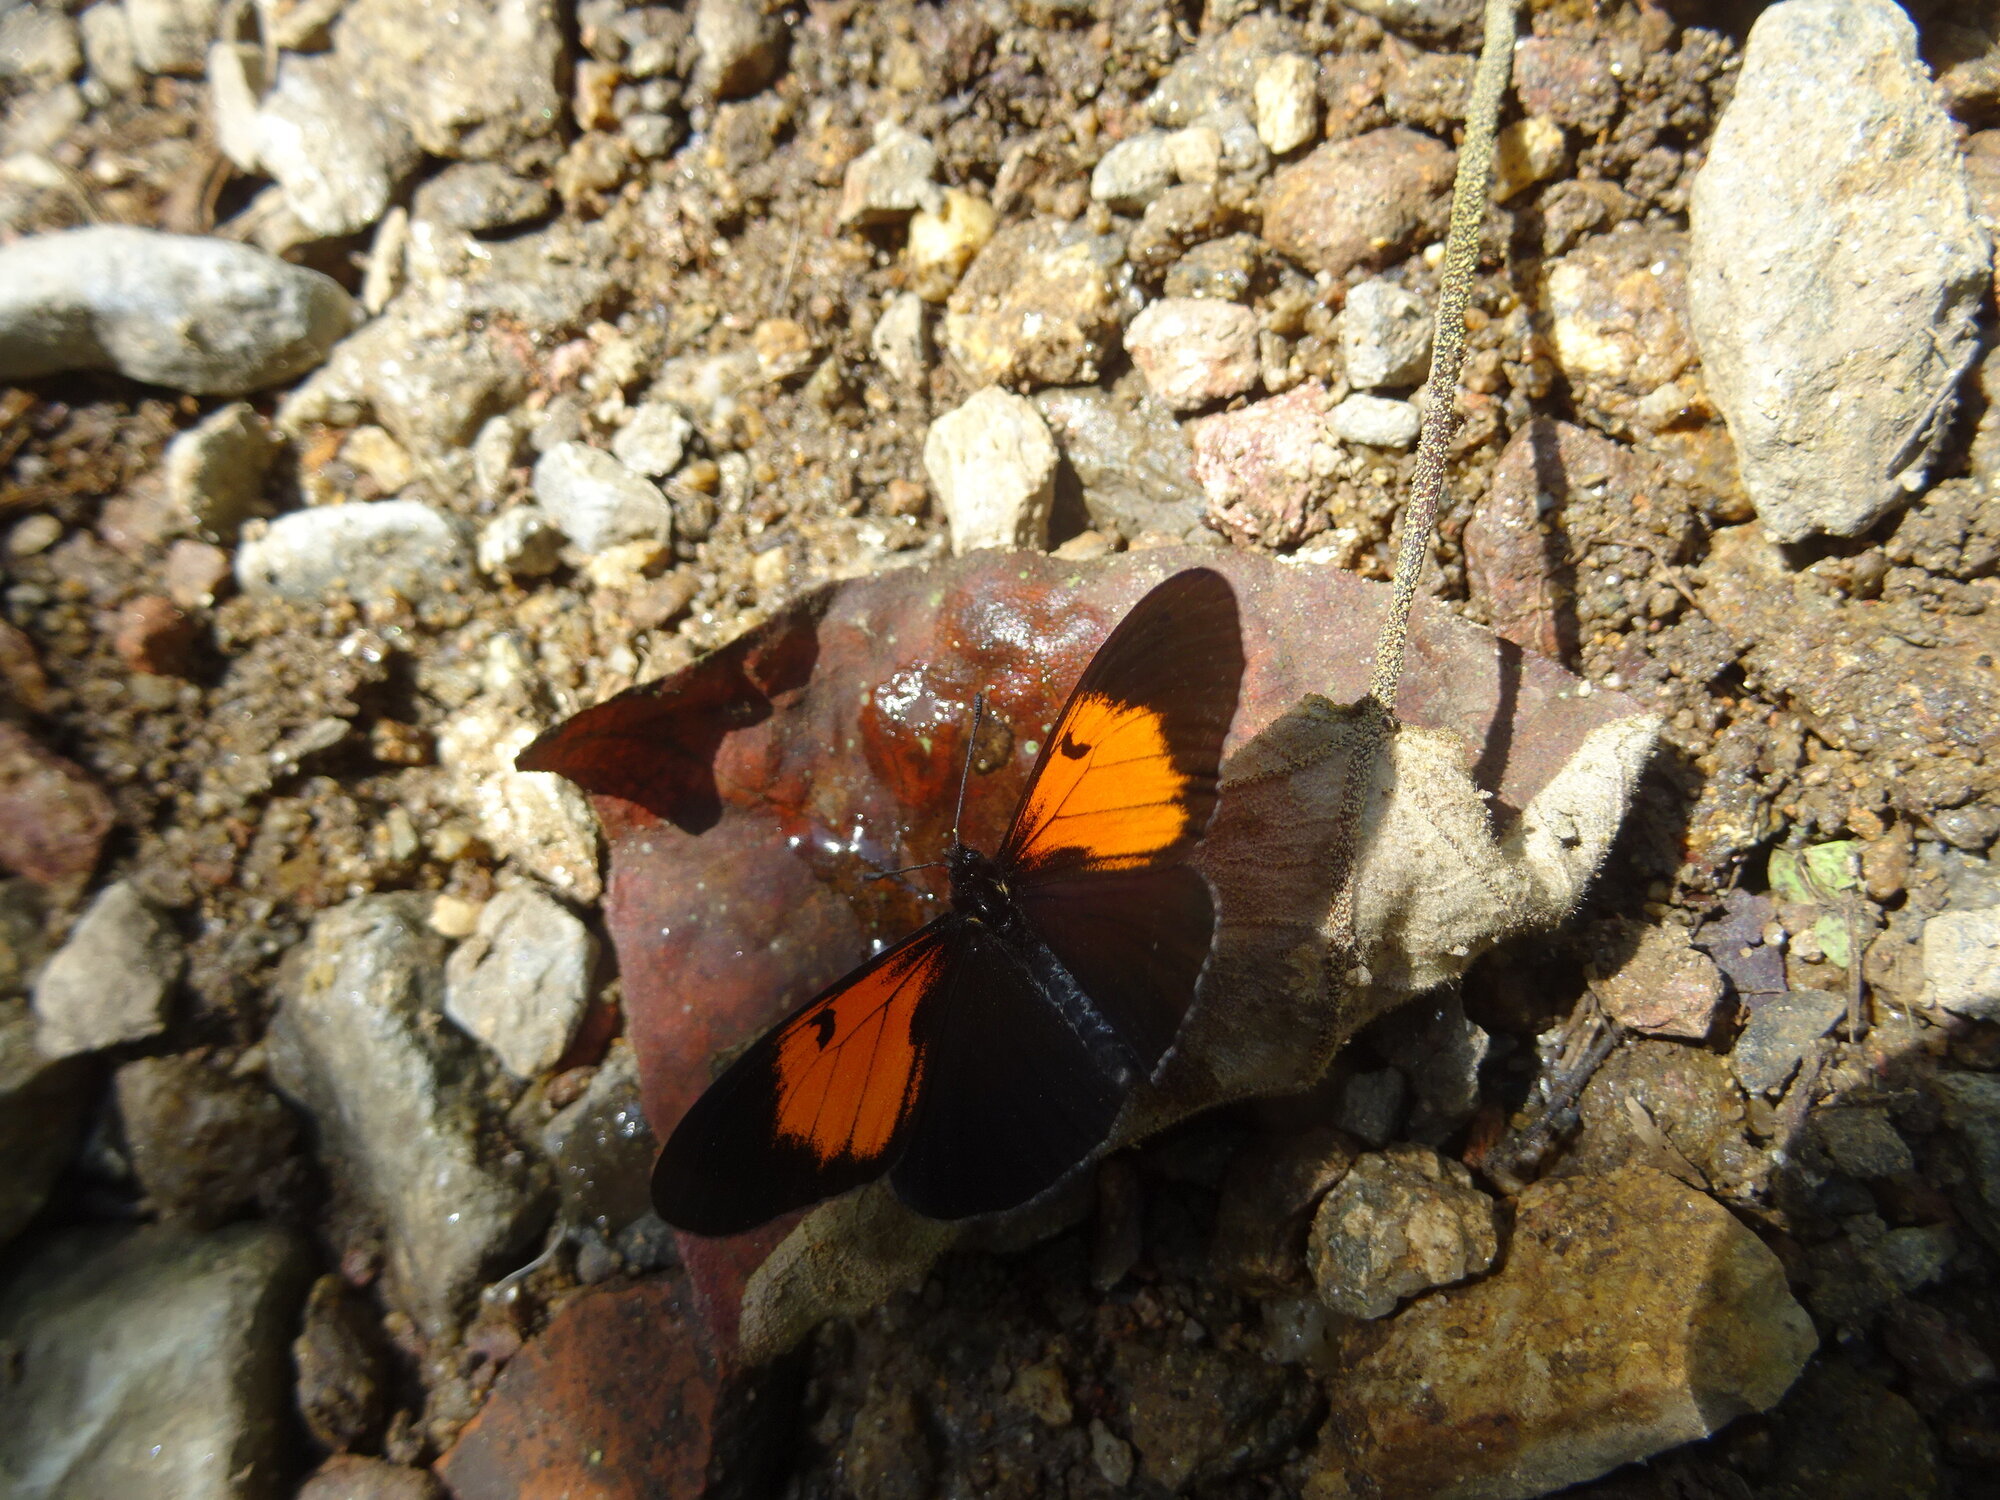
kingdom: Animalia
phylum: Arthropoda
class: Insecta
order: Lepidoptera
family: Nymphalidae
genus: Actinote
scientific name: Actinote stratonice
